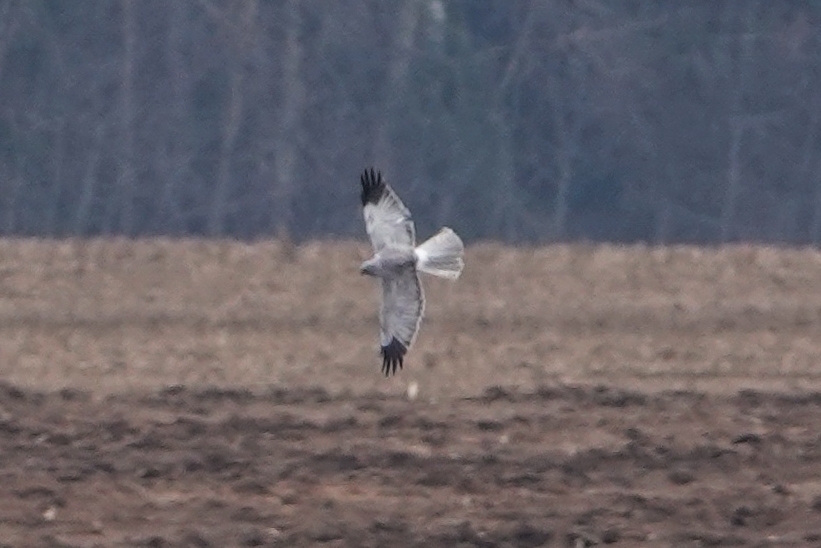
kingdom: Animalia
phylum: Chordata
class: Aves
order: Accipitriformes
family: Accipitridae
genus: Circus
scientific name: Circus cyaneus
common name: Hen harrier
